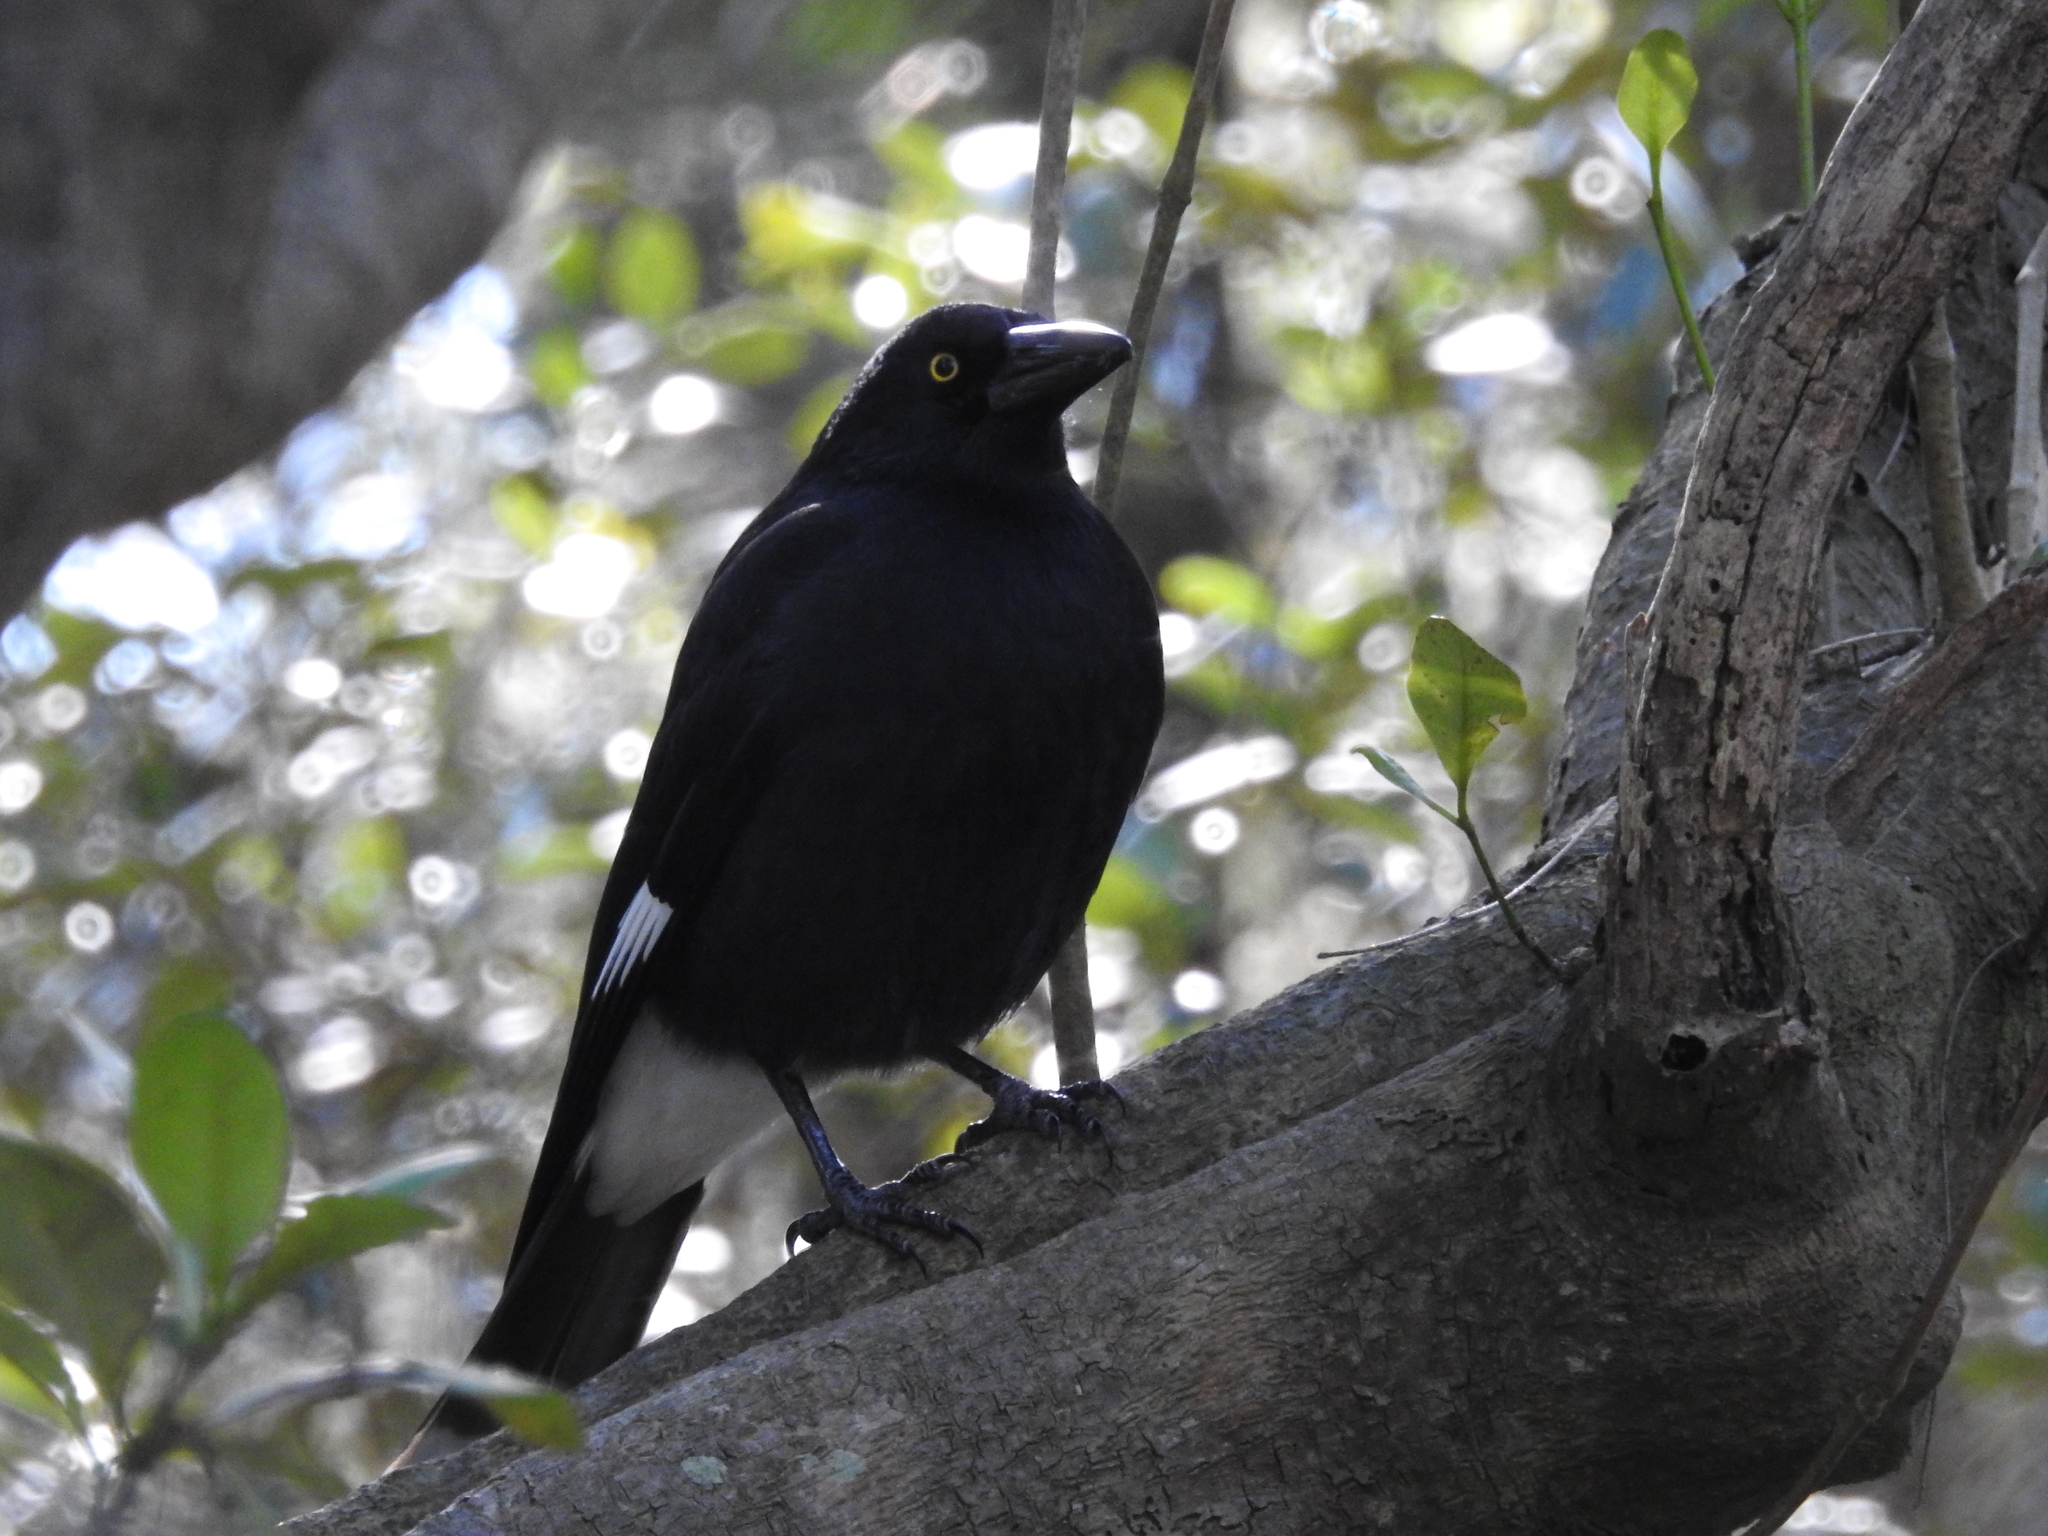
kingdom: Animalia
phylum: Chordata
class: Aves
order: Passeriformes
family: Cracticidae
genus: Strepera
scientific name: Strepera graculina
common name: Pied currawong
